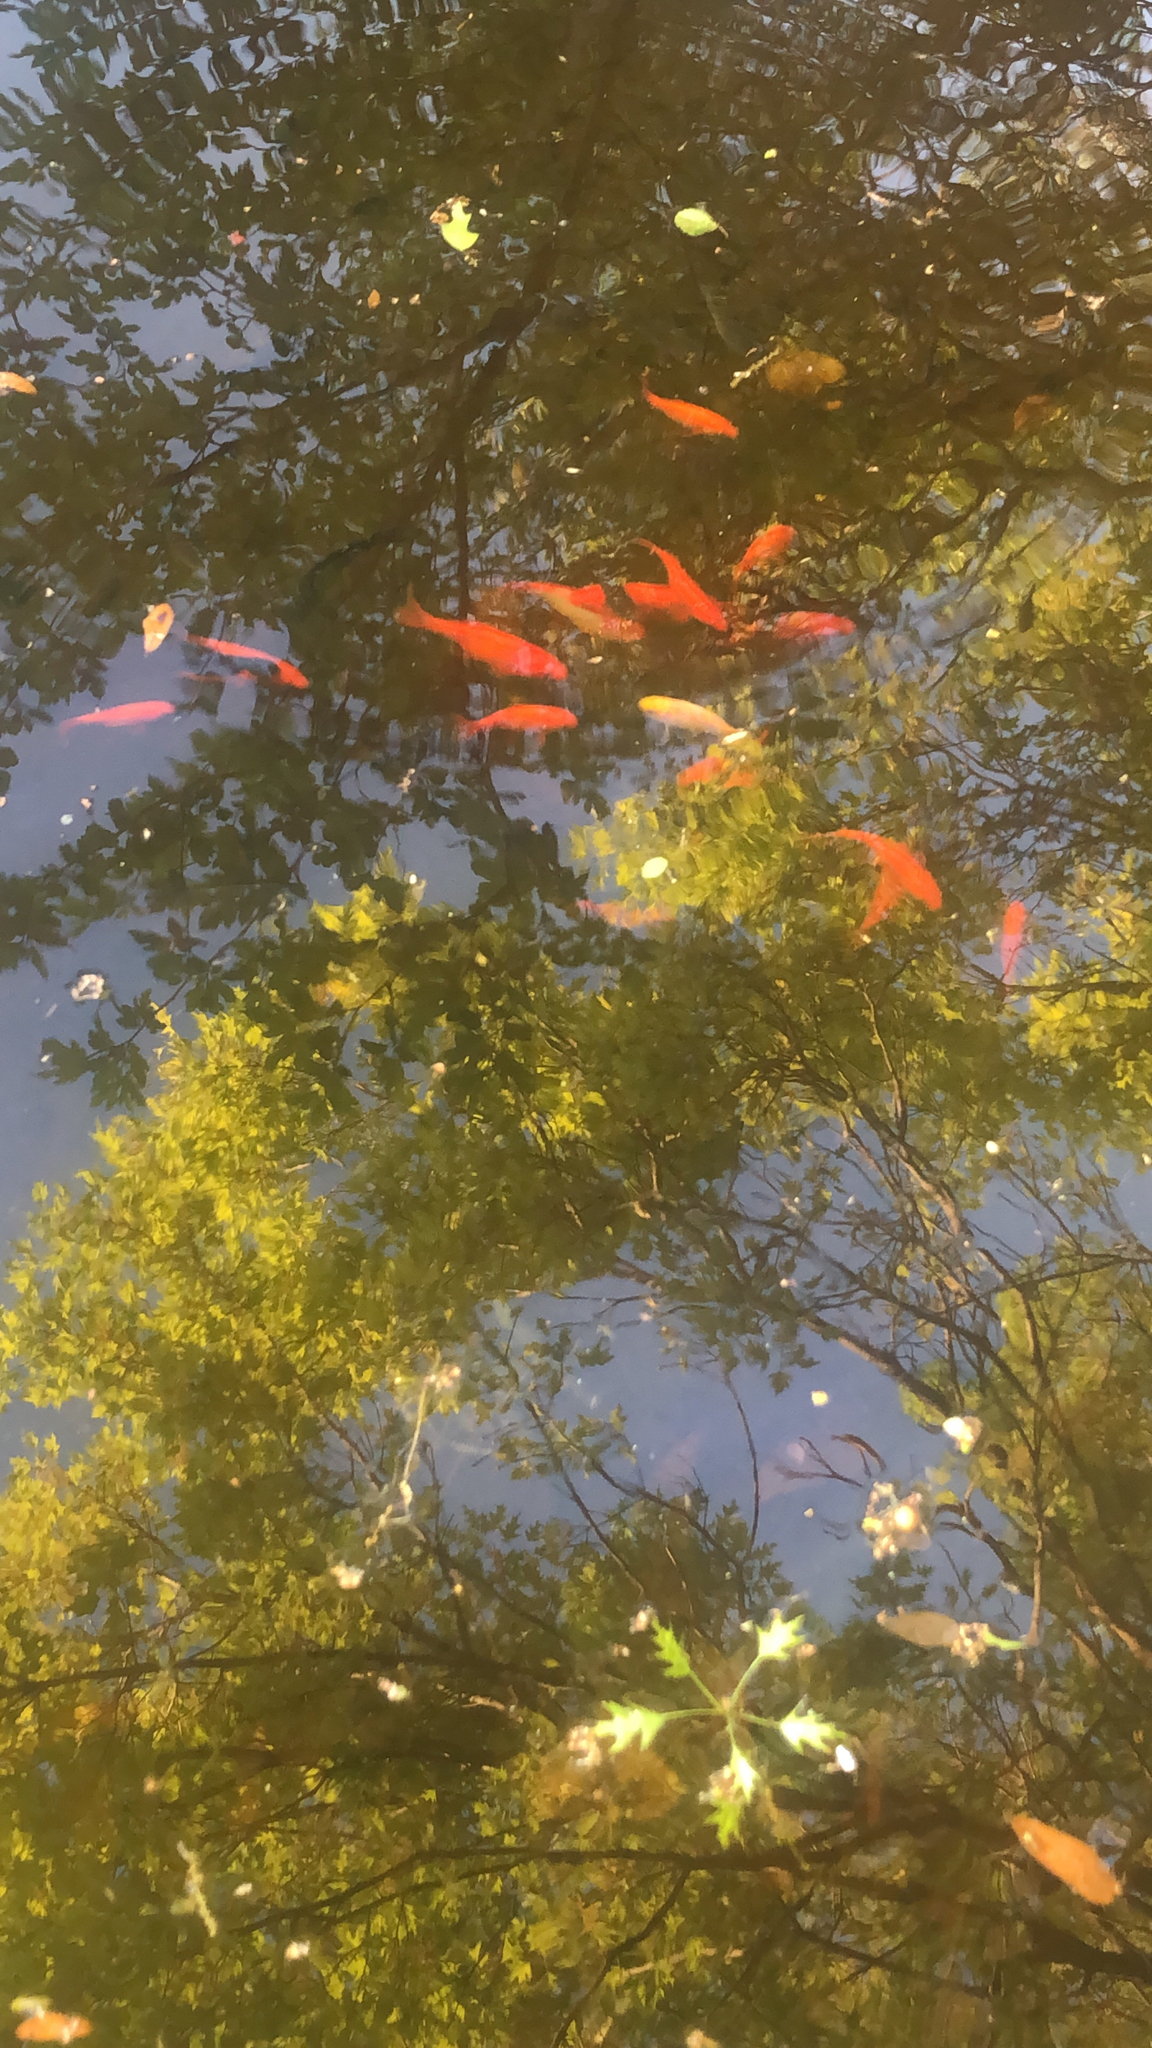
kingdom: Animalia
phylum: Chordata
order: Cypriniformes
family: Cyprinidae
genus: Carassius
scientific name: Carassius auratus
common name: Goldfish
